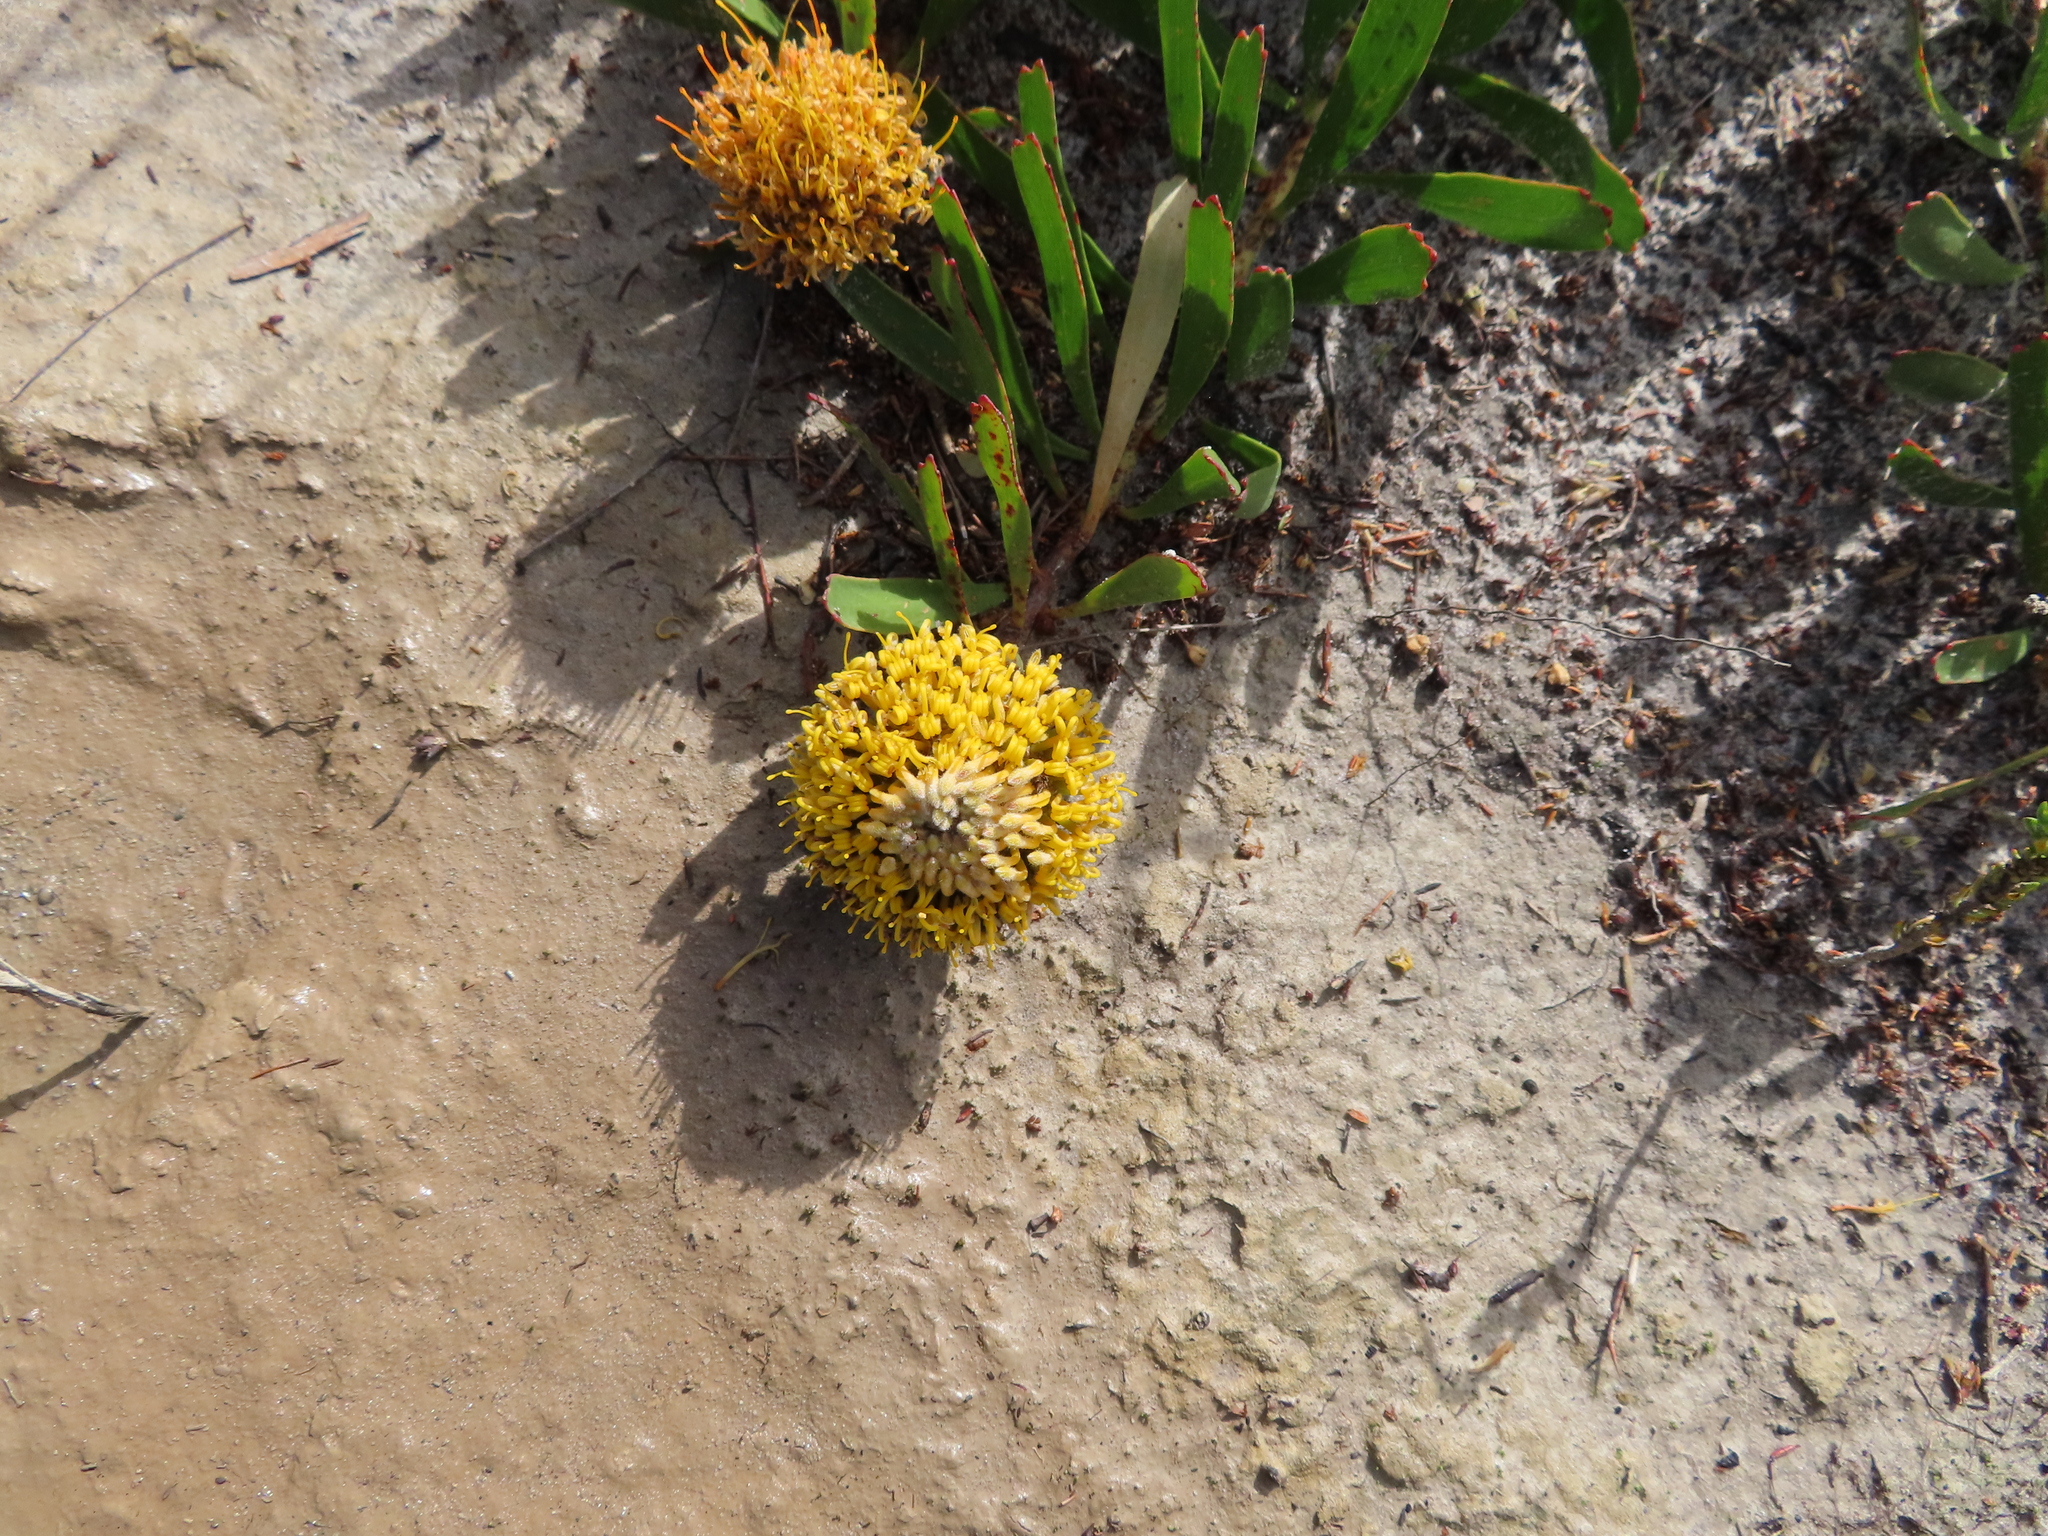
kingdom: Plantae
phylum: Tracheophyta
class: Magnoliopsida
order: Proteales
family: Proteaceae
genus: Leucospermum
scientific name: Leucospermum hypophyllocarpodendron
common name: Snakestem pincushion
